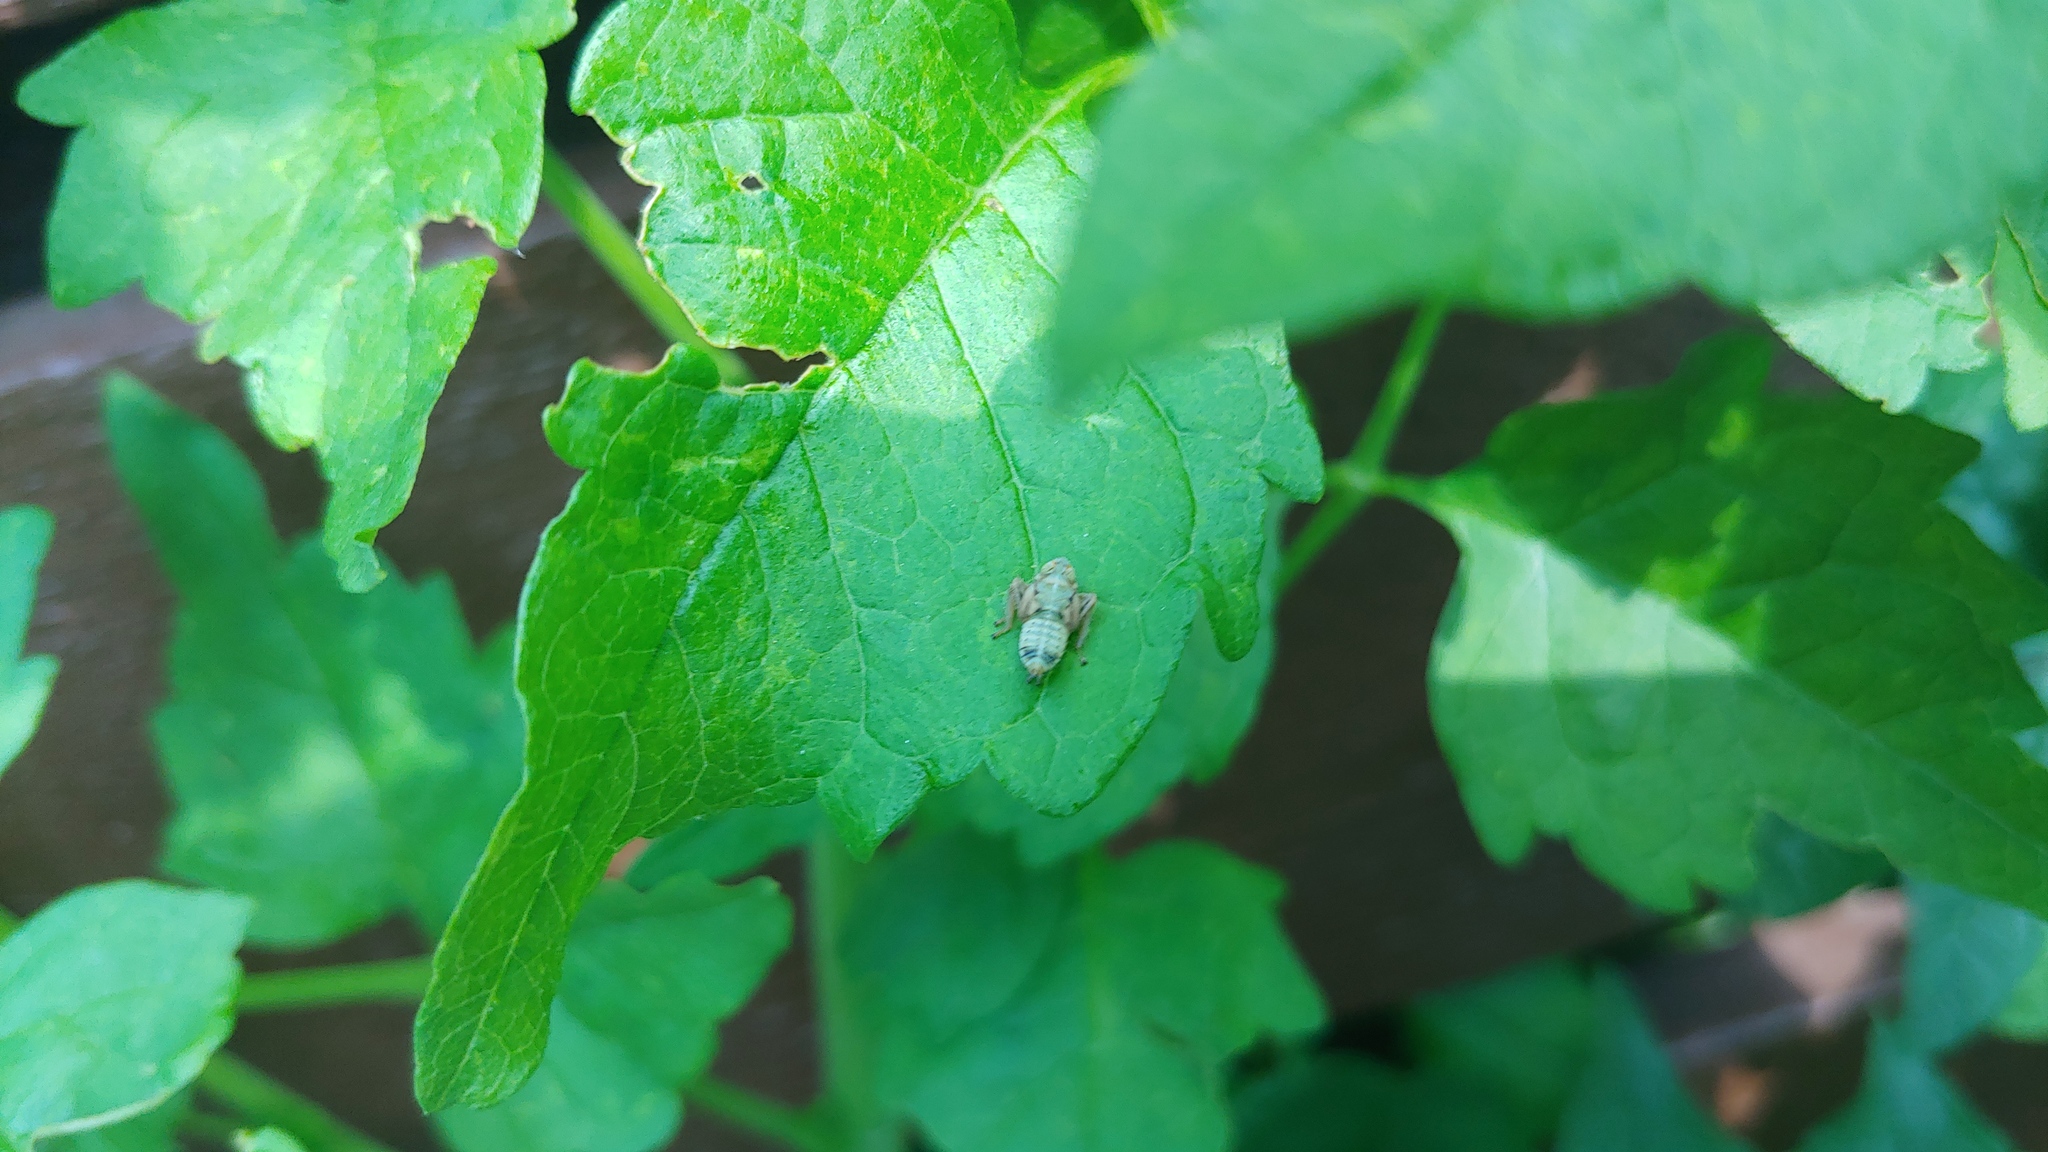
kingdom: Animalia
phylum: Arthropoda
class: Insecta
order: Hemiptera
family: Cicadellidae
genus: Jikradia
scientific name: Jikradia olitoria
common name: Coppery leafhopper
